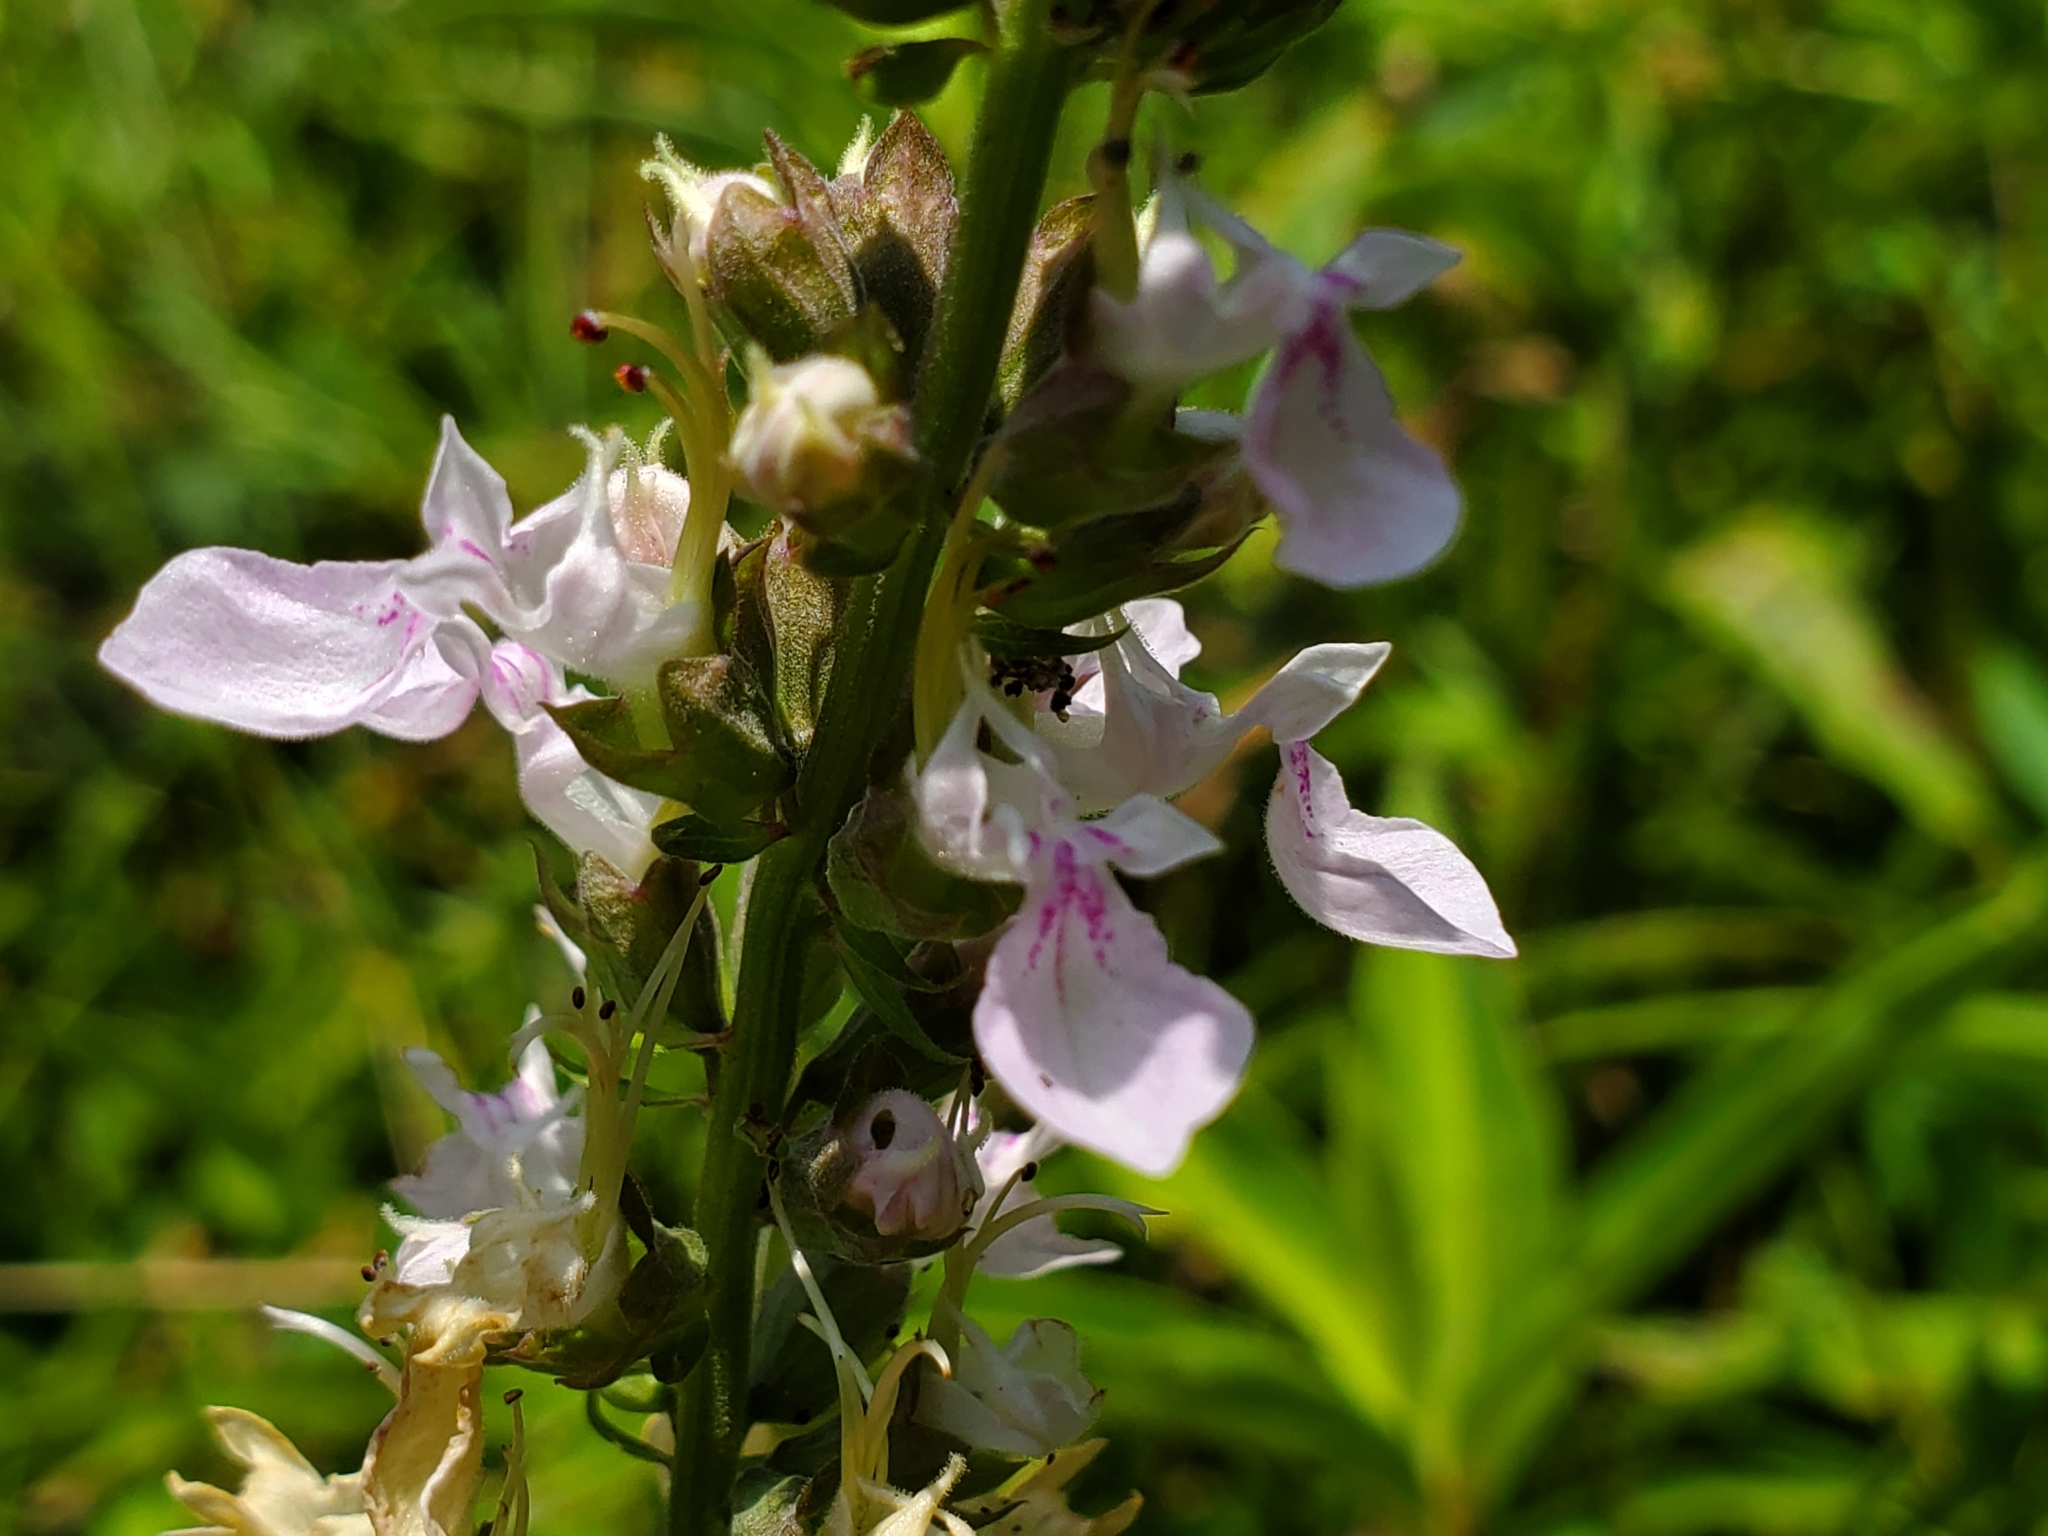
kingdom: Plantae
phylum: Tracheophyta
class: Magnoliopsida
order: Lamiales
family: Lamiaceae
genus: Teucrium
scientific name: Teucrium canadense
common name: American germander
